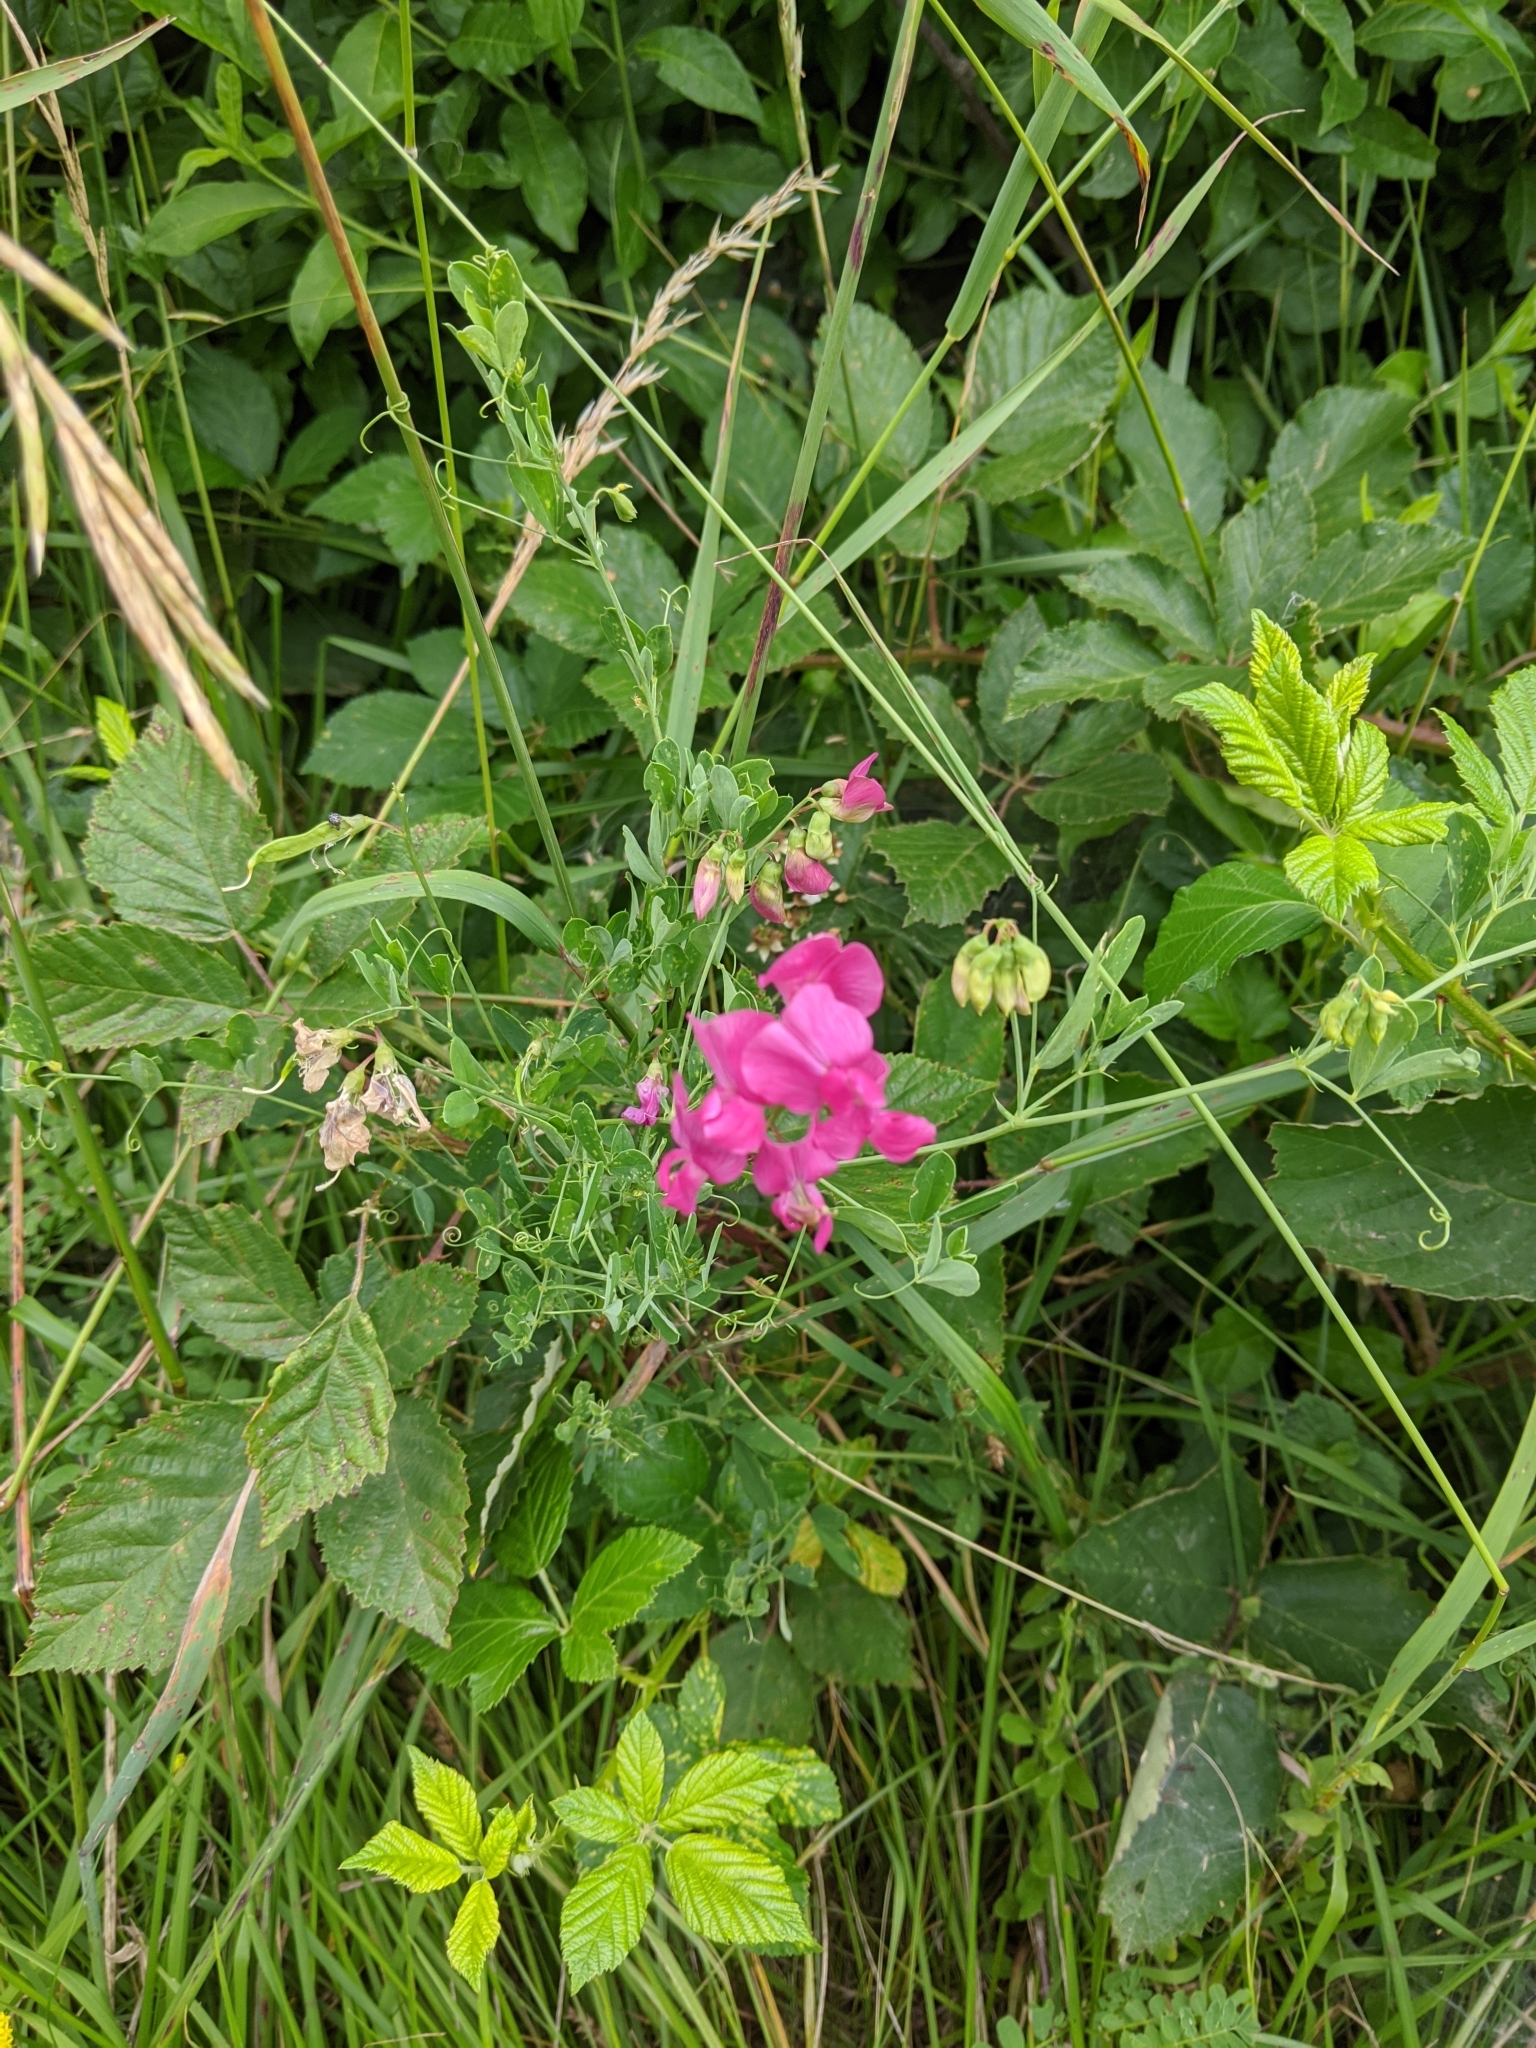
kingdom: Plantae
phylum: Tracheophyta
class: Magnoliopsida
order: Fabales
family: Fabaceae
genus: Lathyrus
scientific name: Lathyrus tuberosus
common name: Tuberous pea
